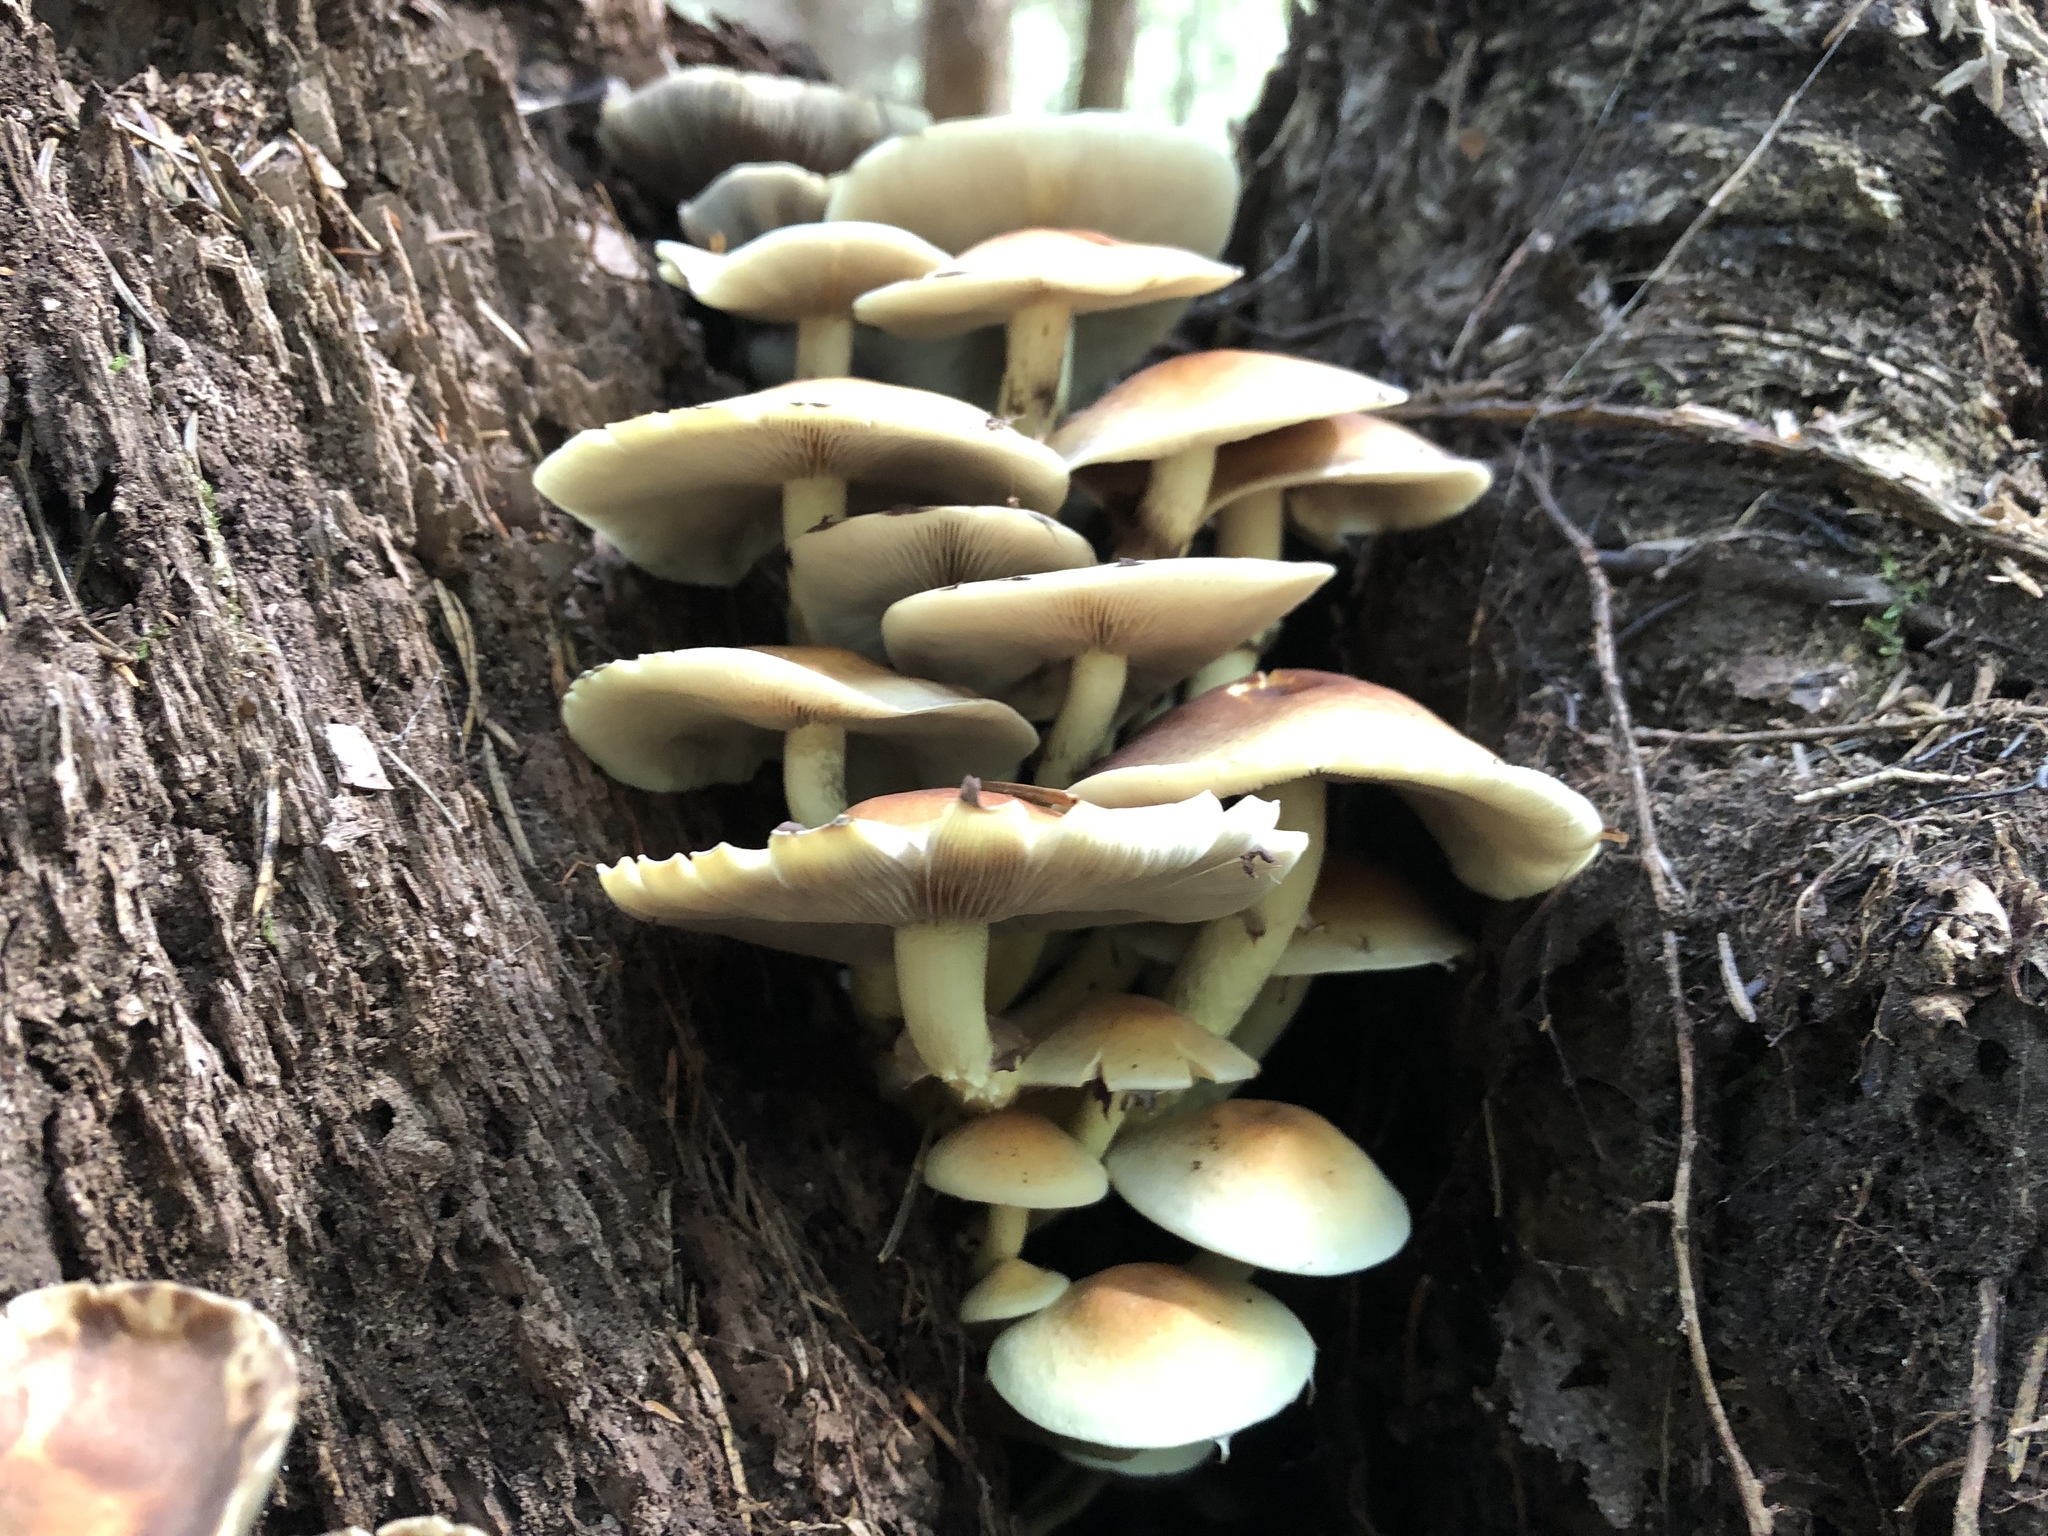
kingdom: Fungi
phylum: Basidiomycota
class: Agaricomycetes
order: Agaricales
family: Strophariaceae
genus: Hypholoma
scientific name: Hypholoma fasciculare
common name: Sulphur tuft
